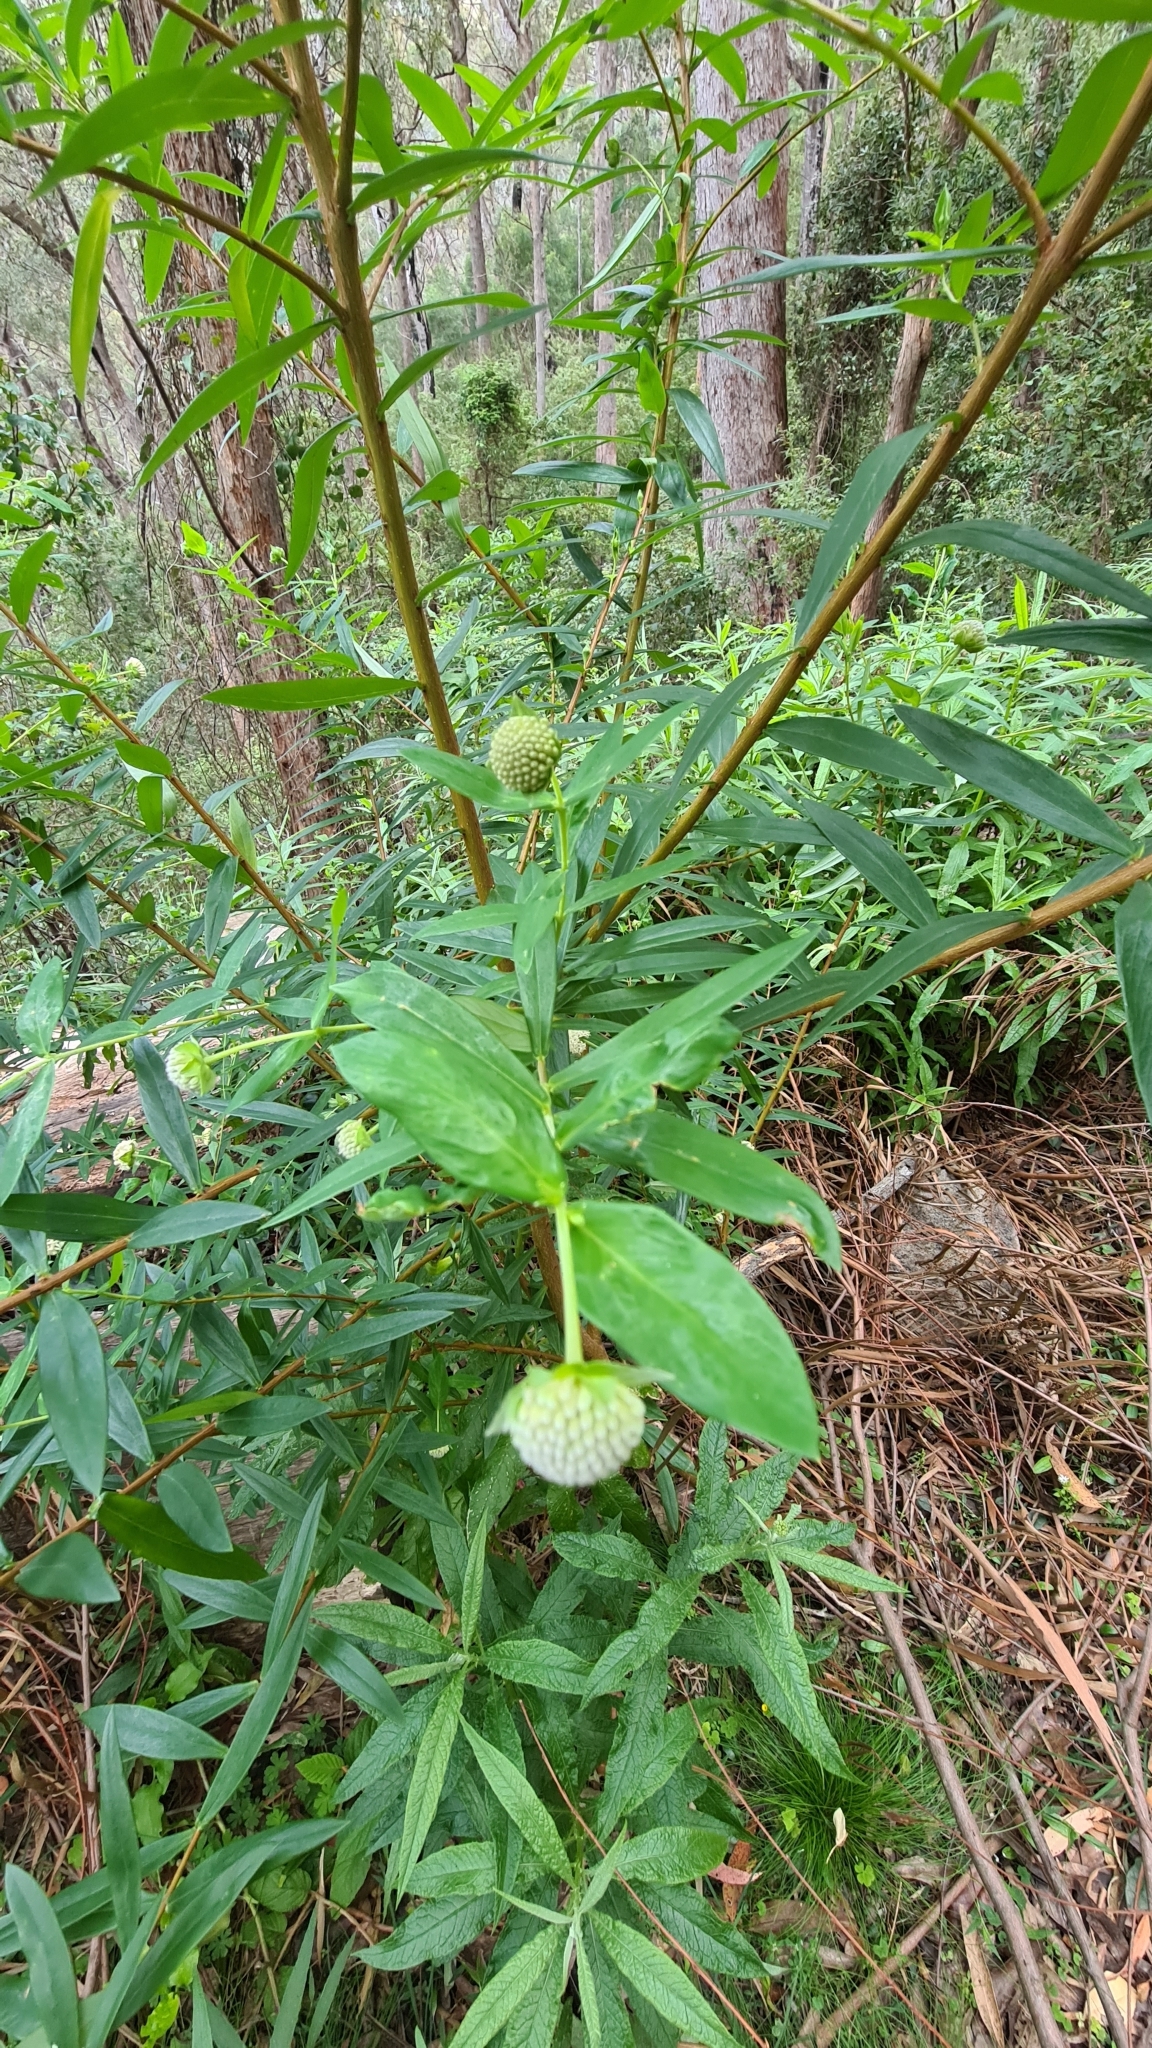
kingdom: Plantae
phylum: Tracheophyta
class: Magnoliopsida
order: Malvales
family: Thymelaeaceae
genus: Pimelea
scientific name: Pimelea ligustrina
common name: Tall riceflower
